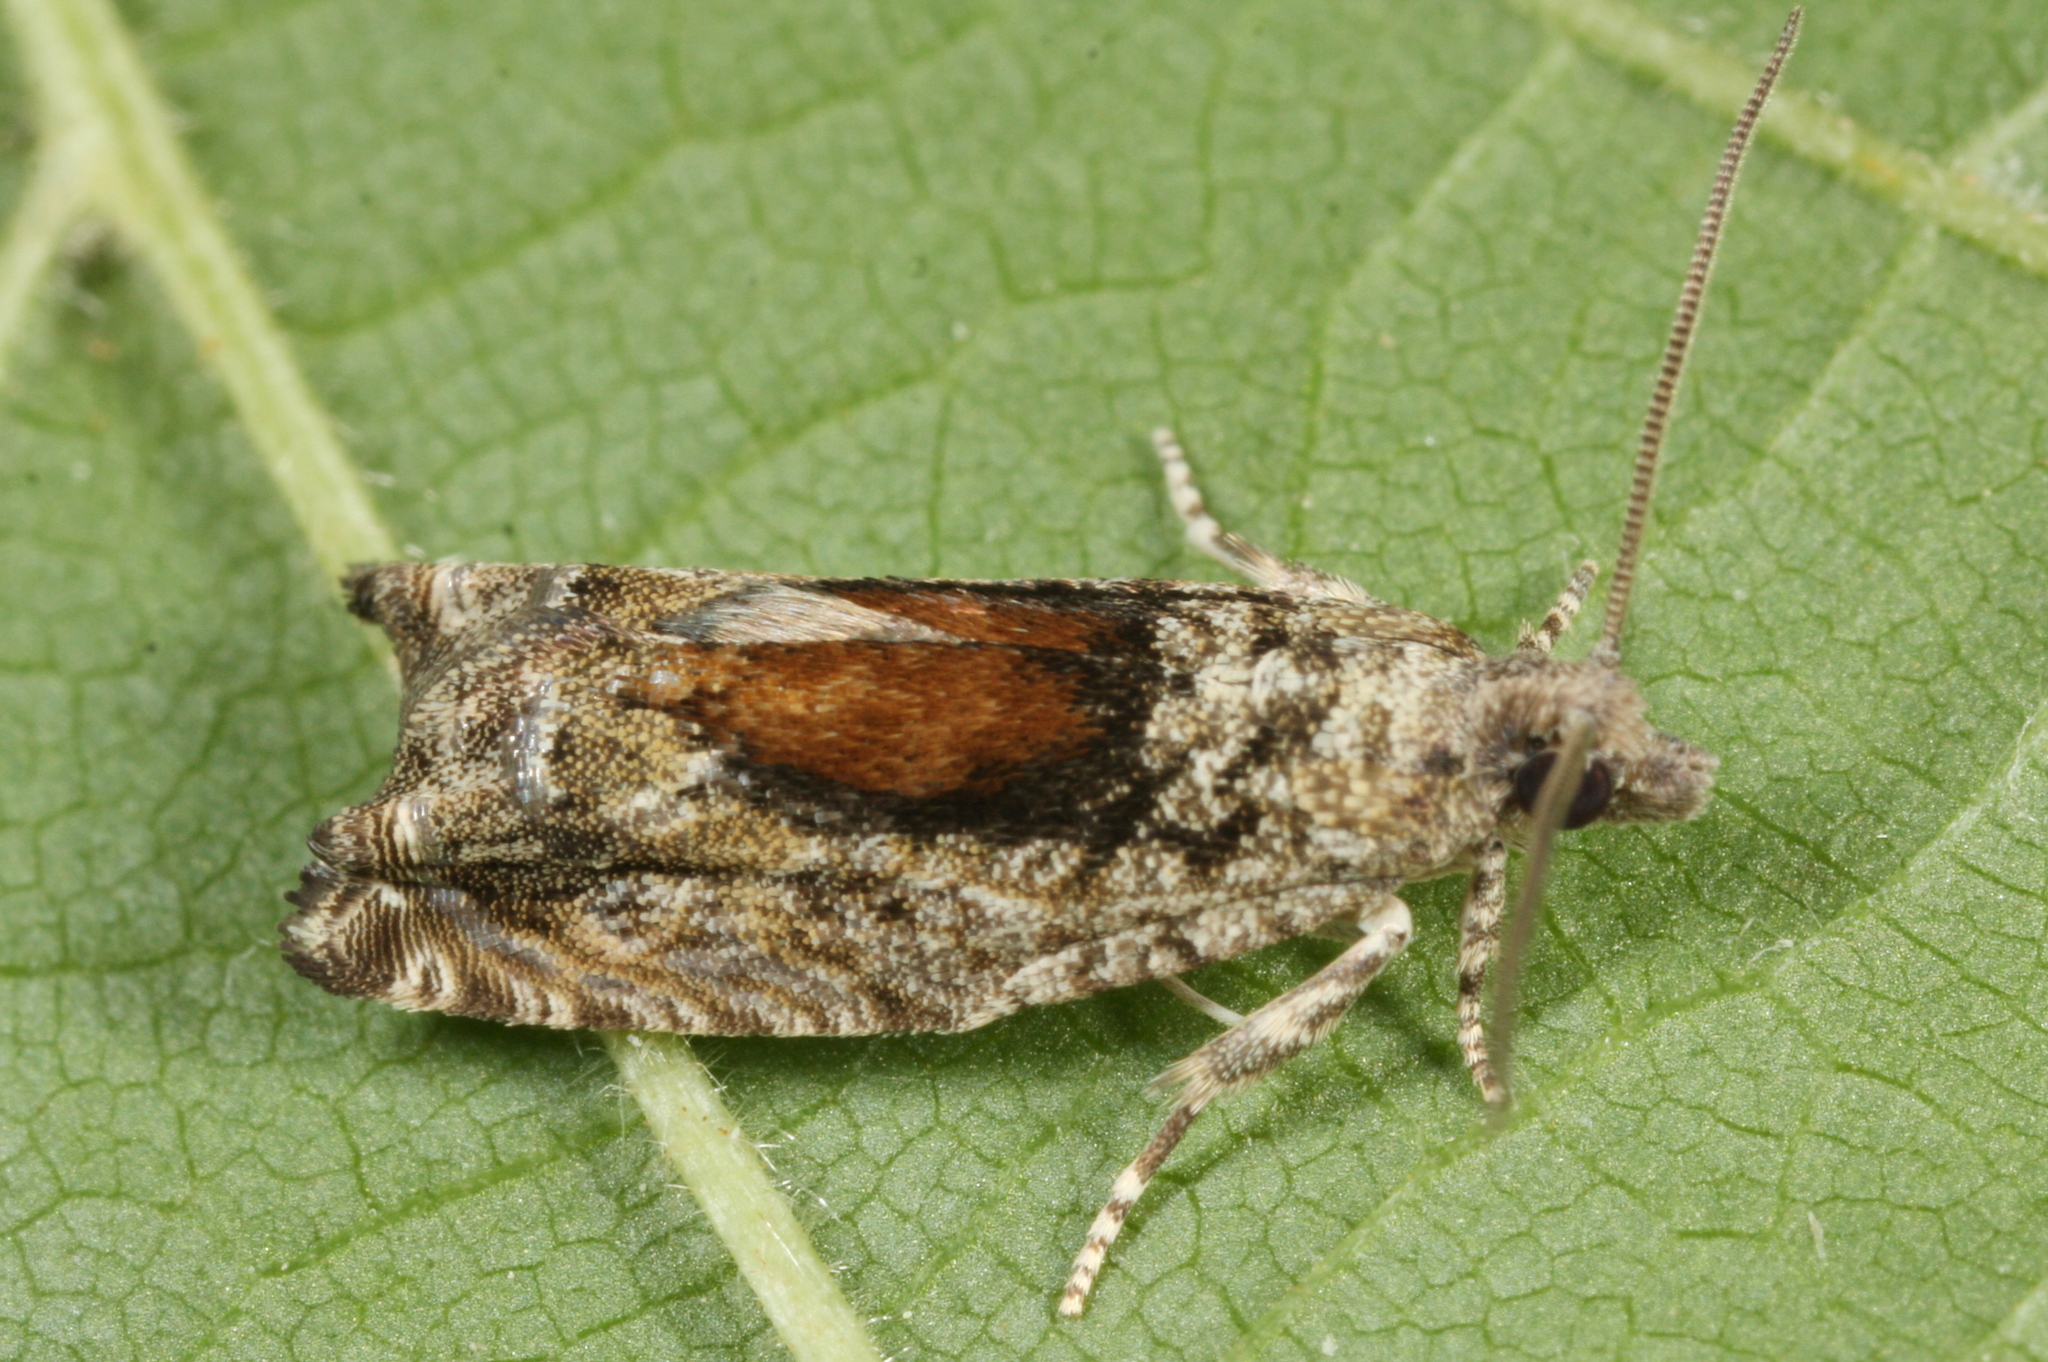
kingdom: Animalia
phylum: Arthropoda
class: Insecta
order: Lepidoptera
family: Tortricidae
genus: Epinotia
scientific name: Epinotia nisella
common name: Grey poplar bell
